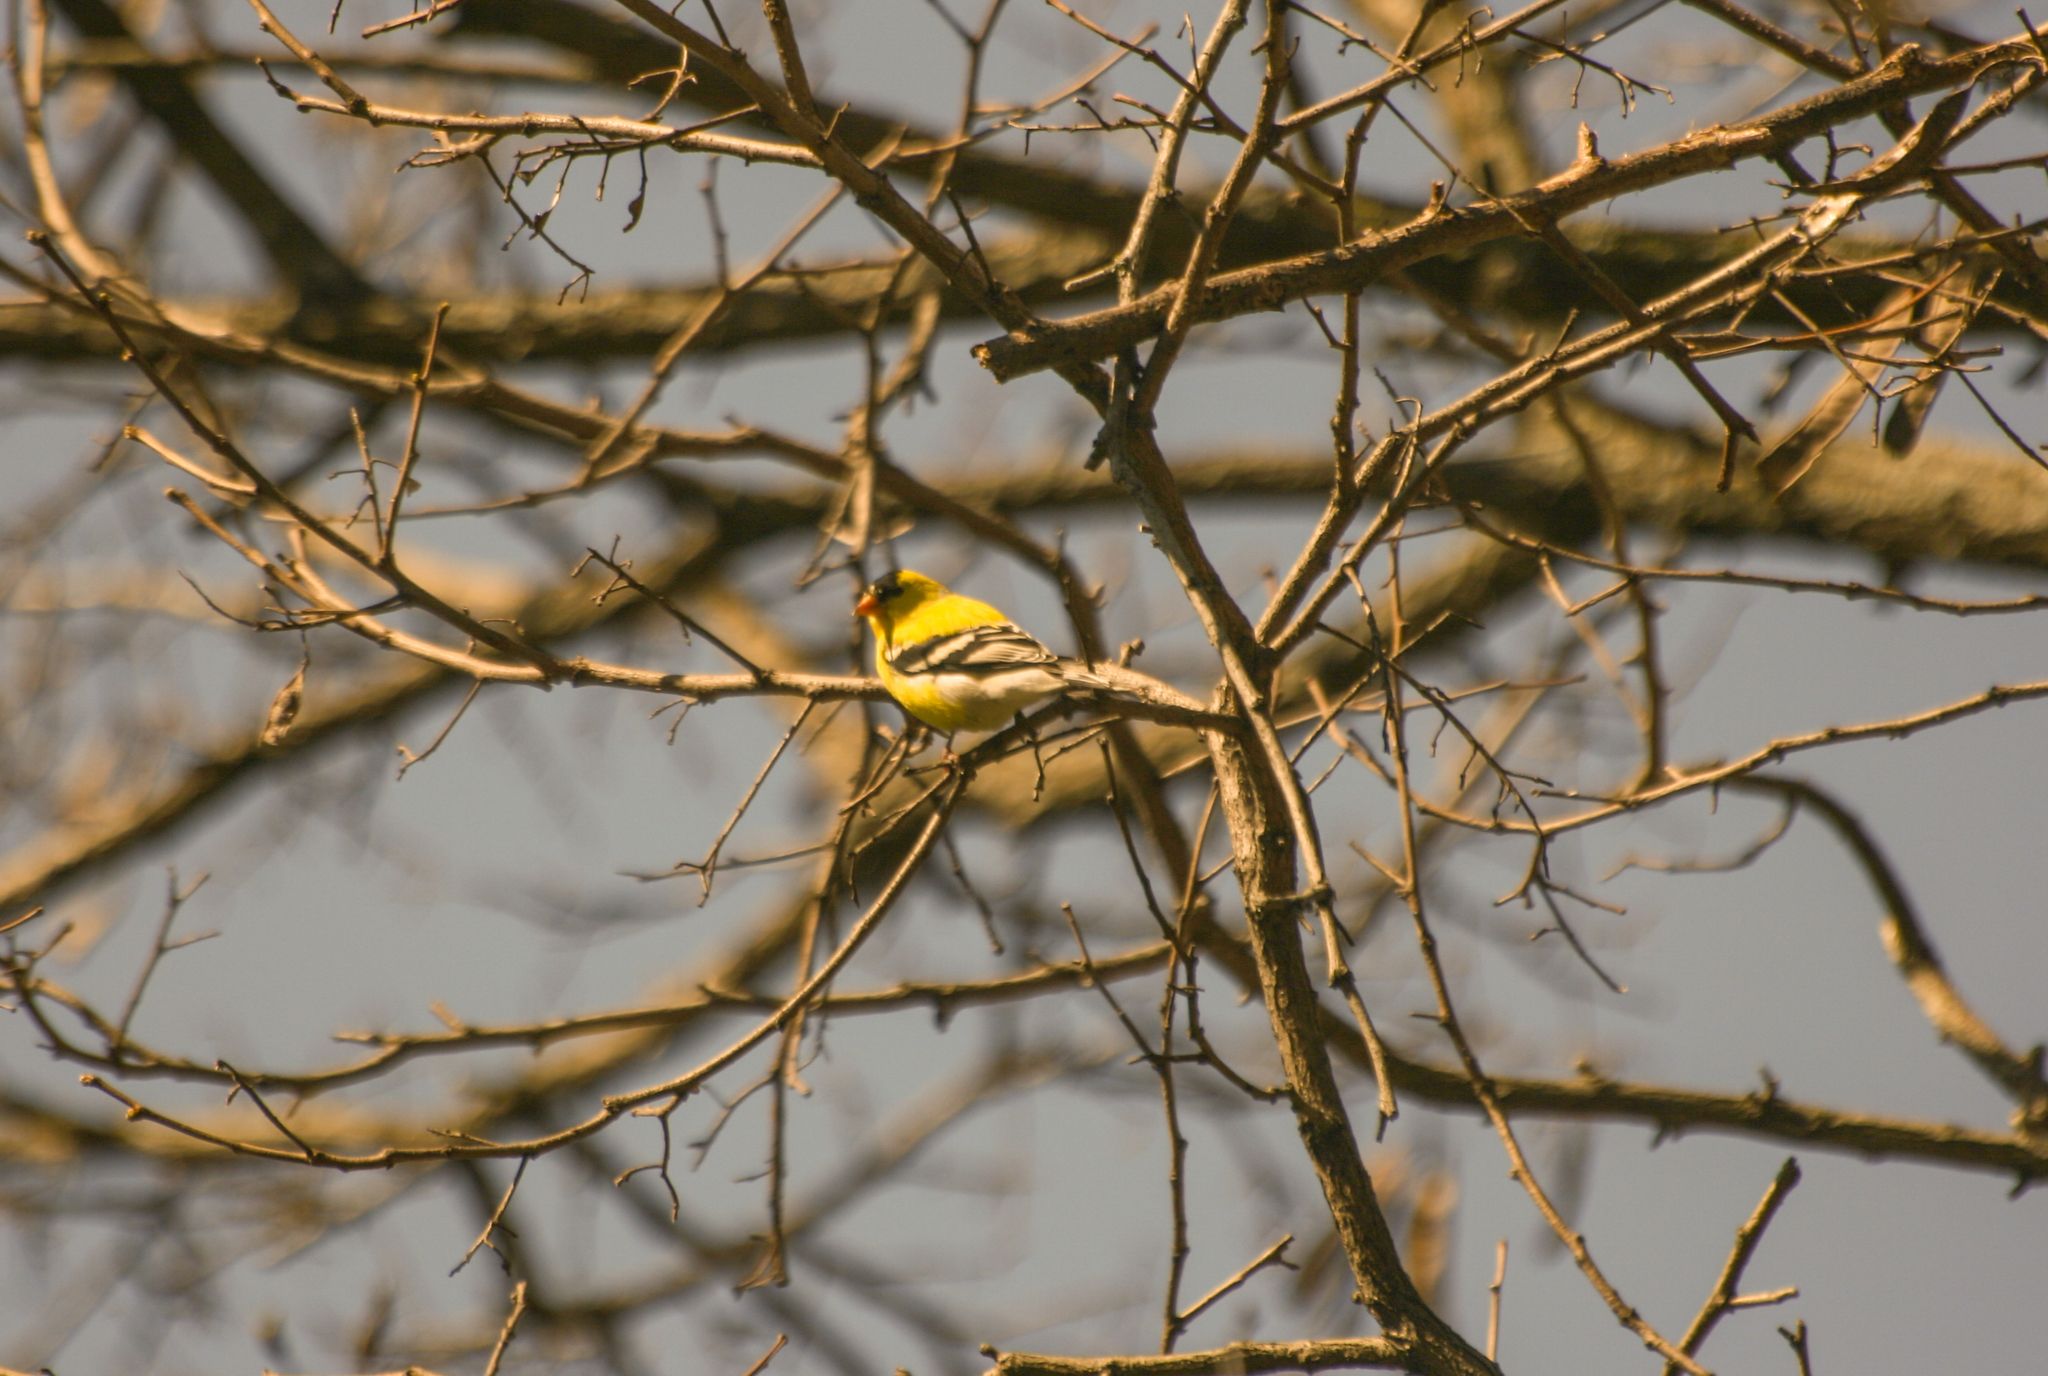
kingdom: Animalia
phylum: Chordata
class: Aves
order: Passeriformes
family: Fringillidae
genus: Spinus
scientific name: Spinus tristis
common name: American goldfinch
